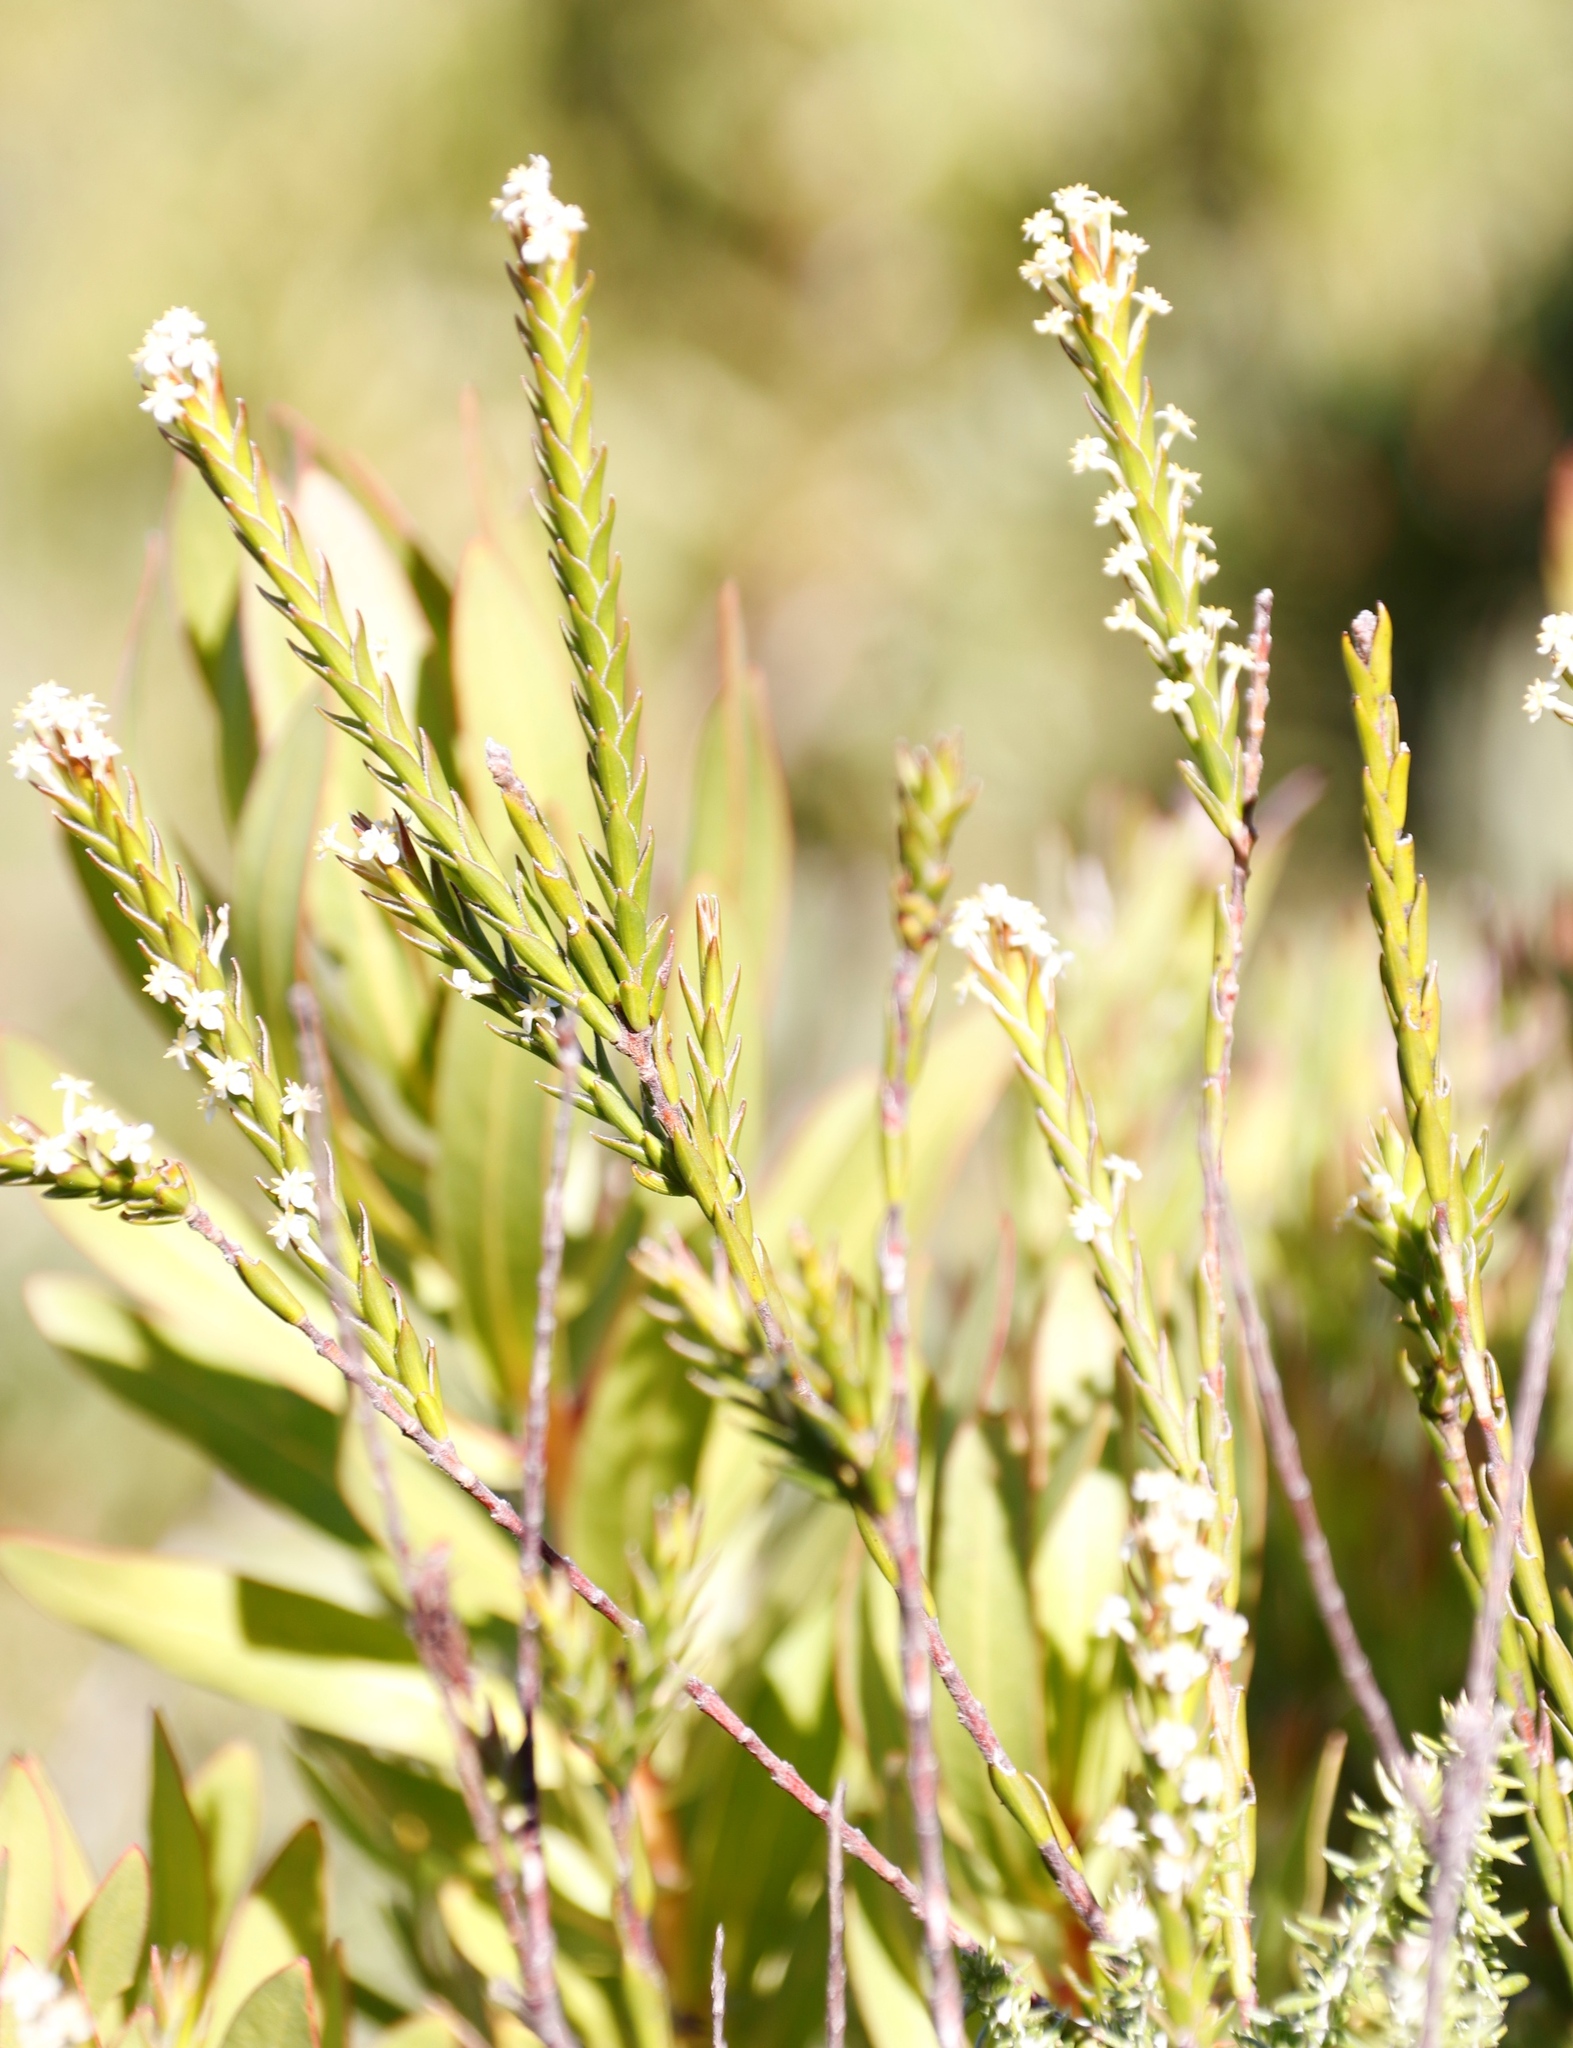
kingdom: Plantae
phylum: Tracheophyta
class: Magnoliopsida
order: Malvales
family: Thymelaeaceae
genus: Struthiola
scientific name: Struthiola ciliata
